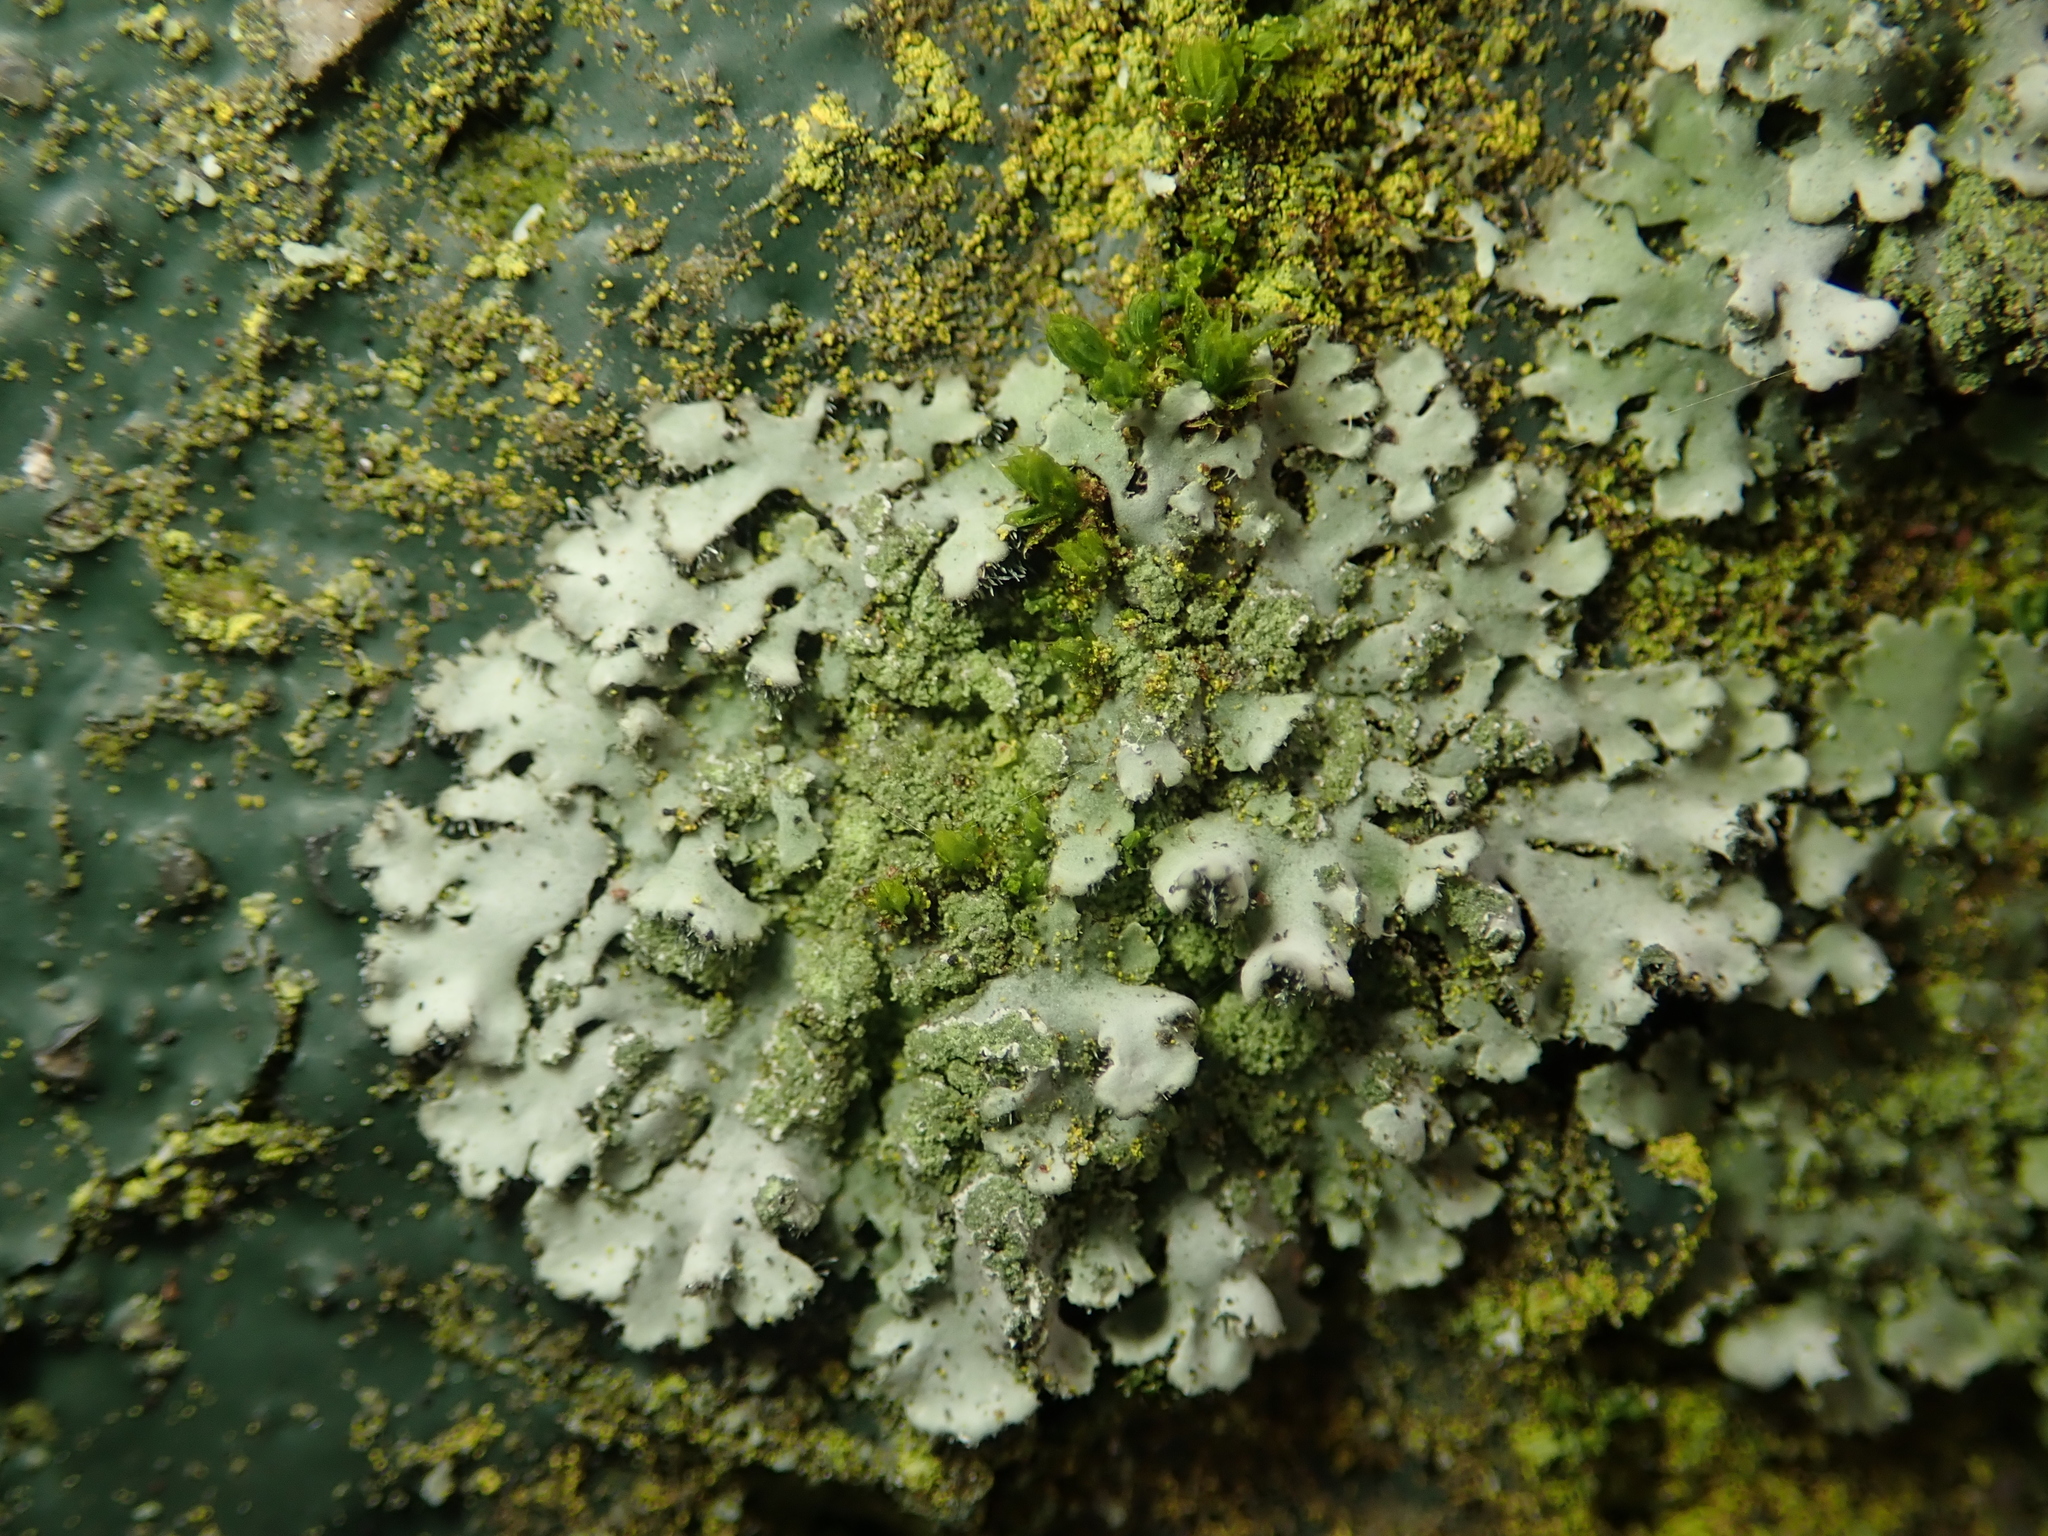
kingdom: Fungi
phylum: Ascomycota
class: Lecanoromycetes
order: Caliciales
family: Physciaceae
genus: Phaeophyscia
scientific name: Phaeophyscia orbicularis
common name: Mealy shadow lichen
